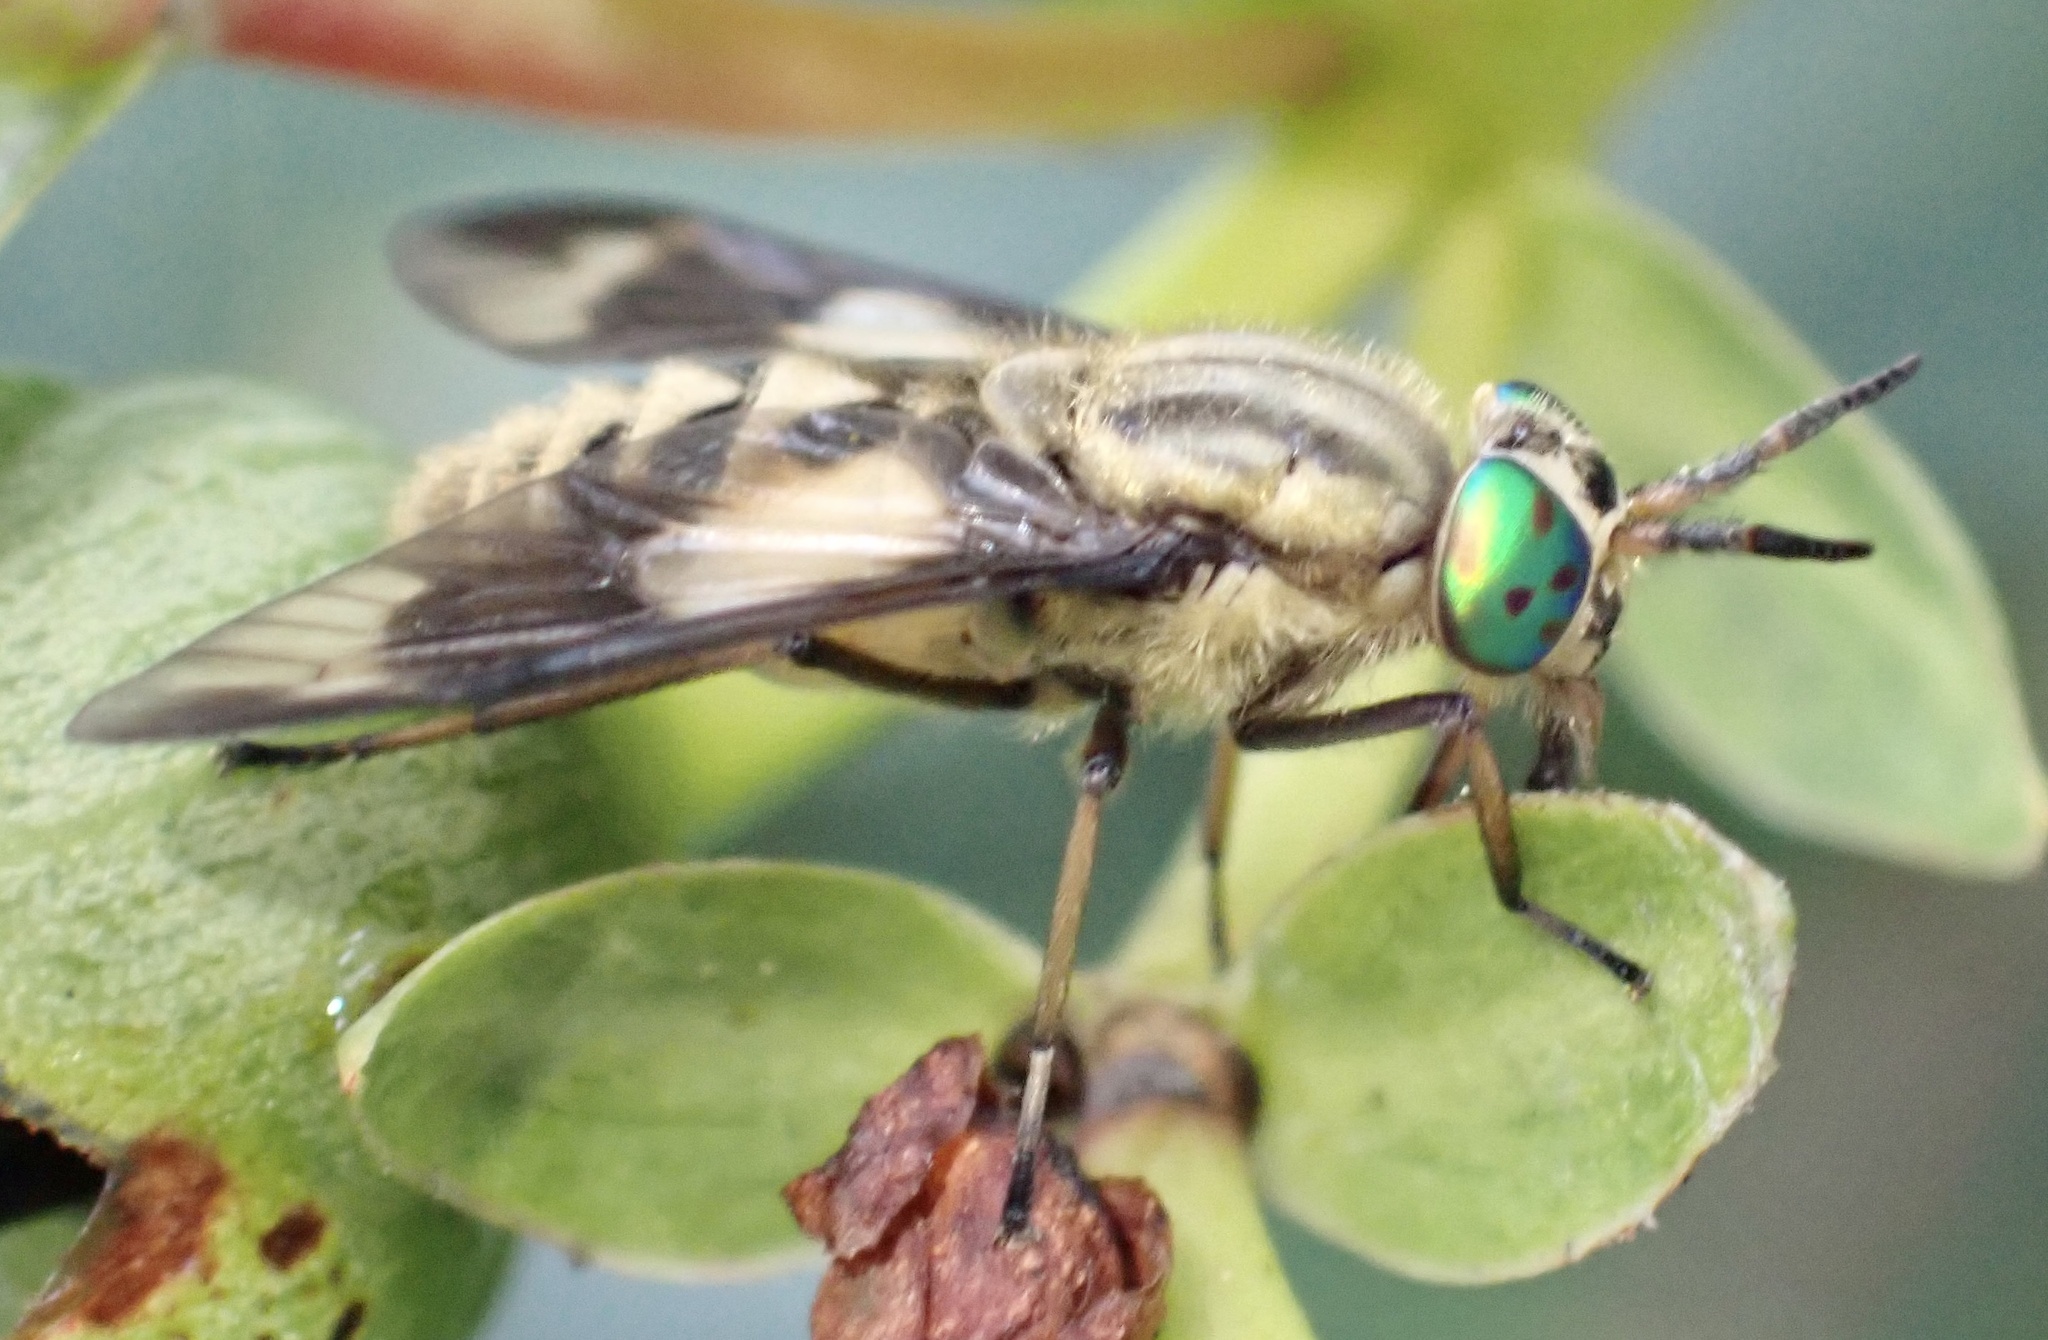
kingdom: Animalia
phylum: Arthropoda
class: Insecta
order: Diptera
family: Tabanidae
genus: Chrysops
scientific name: Chrysops relictus
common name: Twin-lobed deerfly
